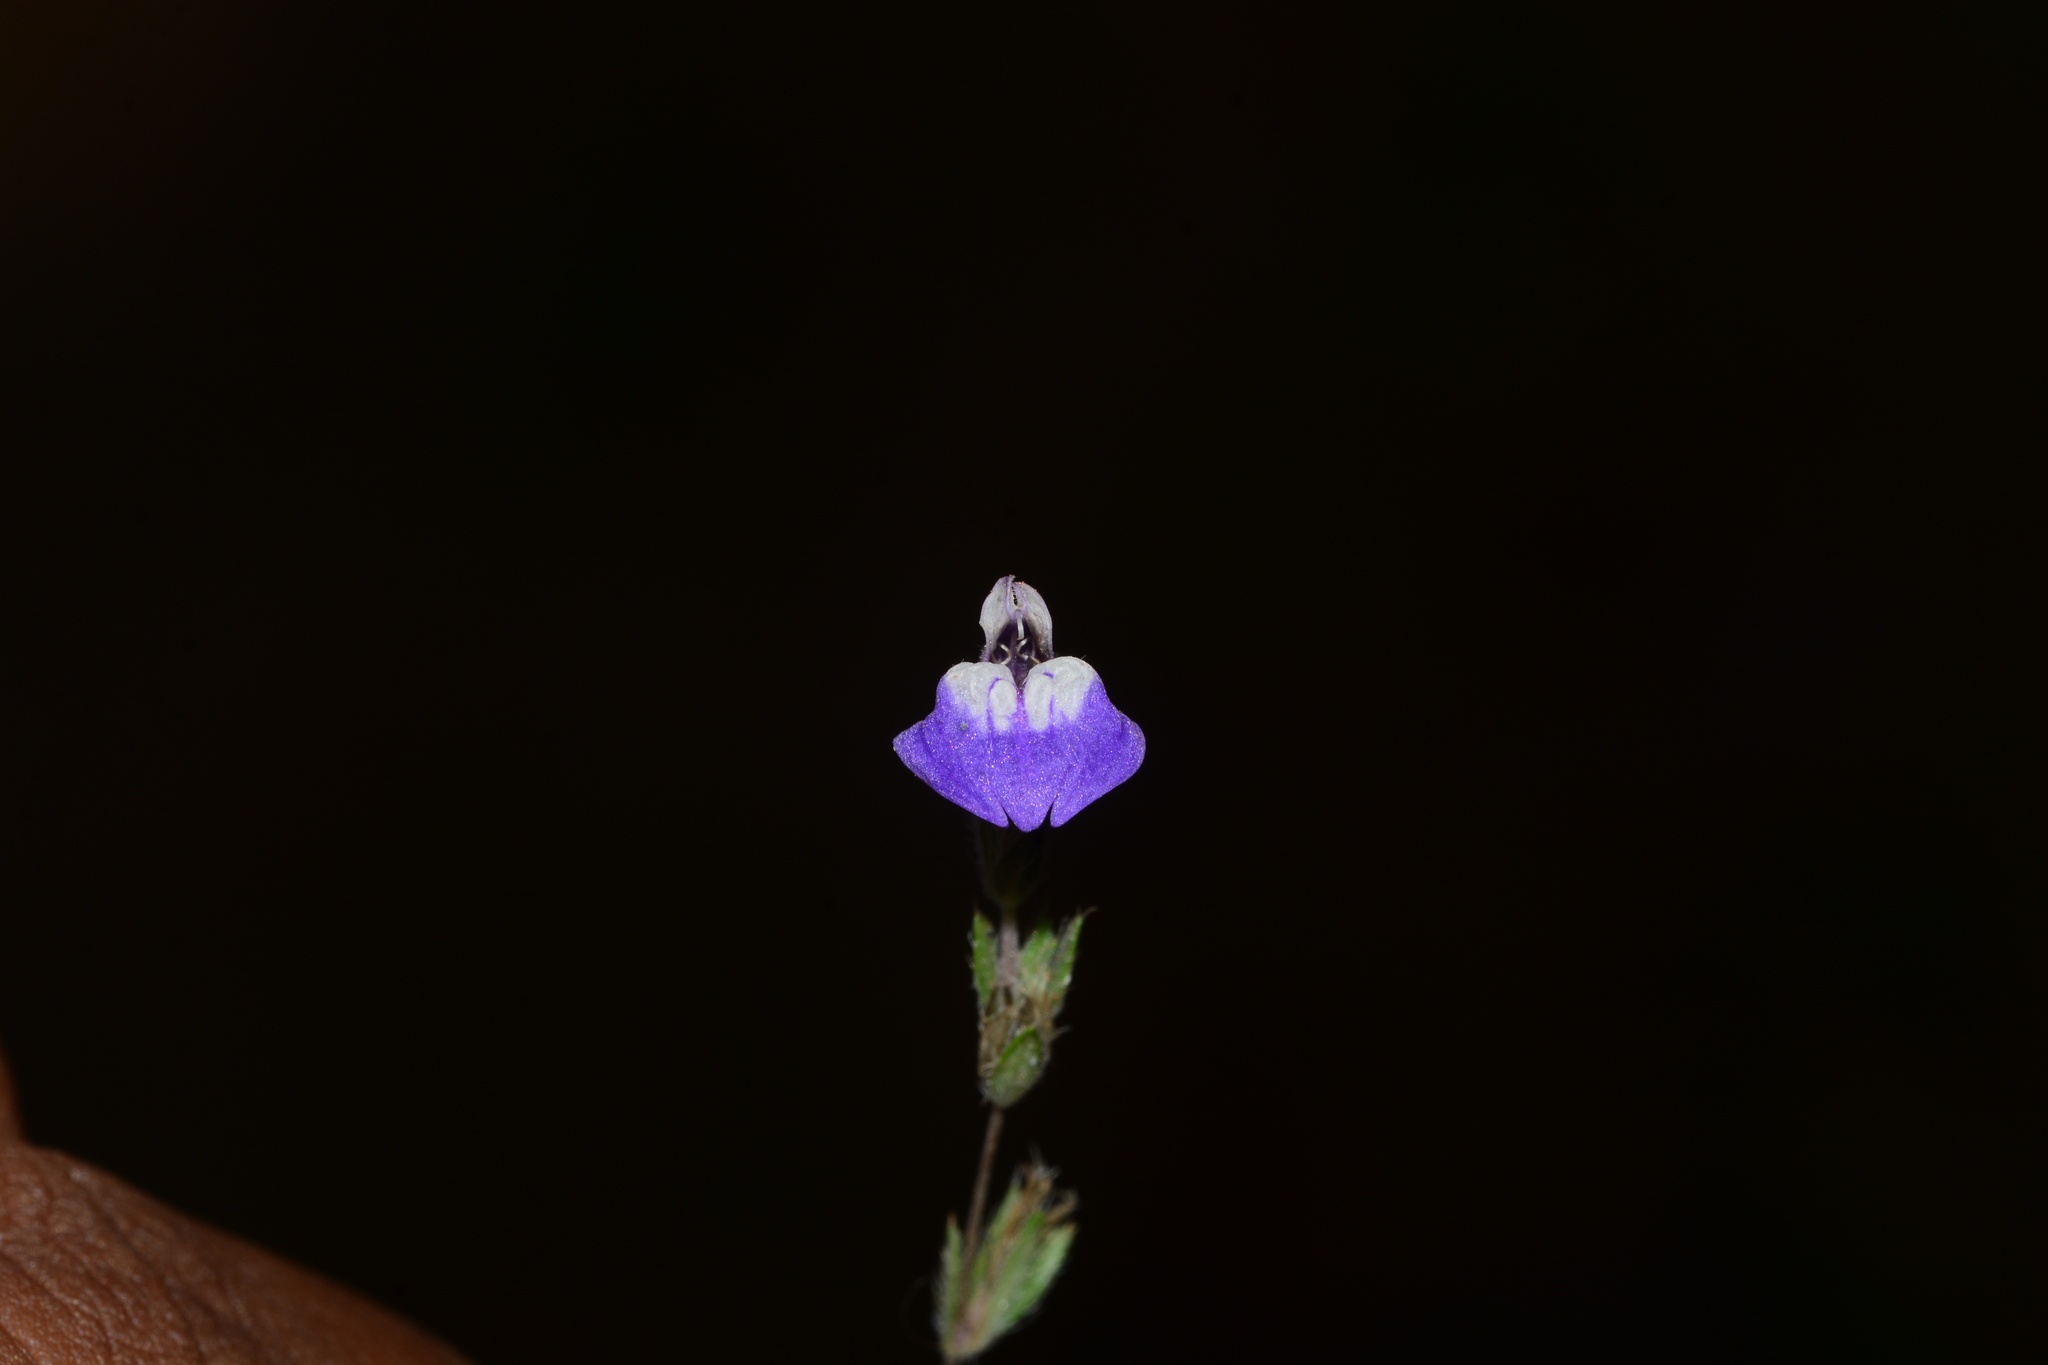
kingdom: Plantae
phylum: Tracheophyta
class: Magnoliopsida
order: Lamiales
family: Acanthaceae
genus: Hygrophila
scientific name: Hygrophila serpyllum
